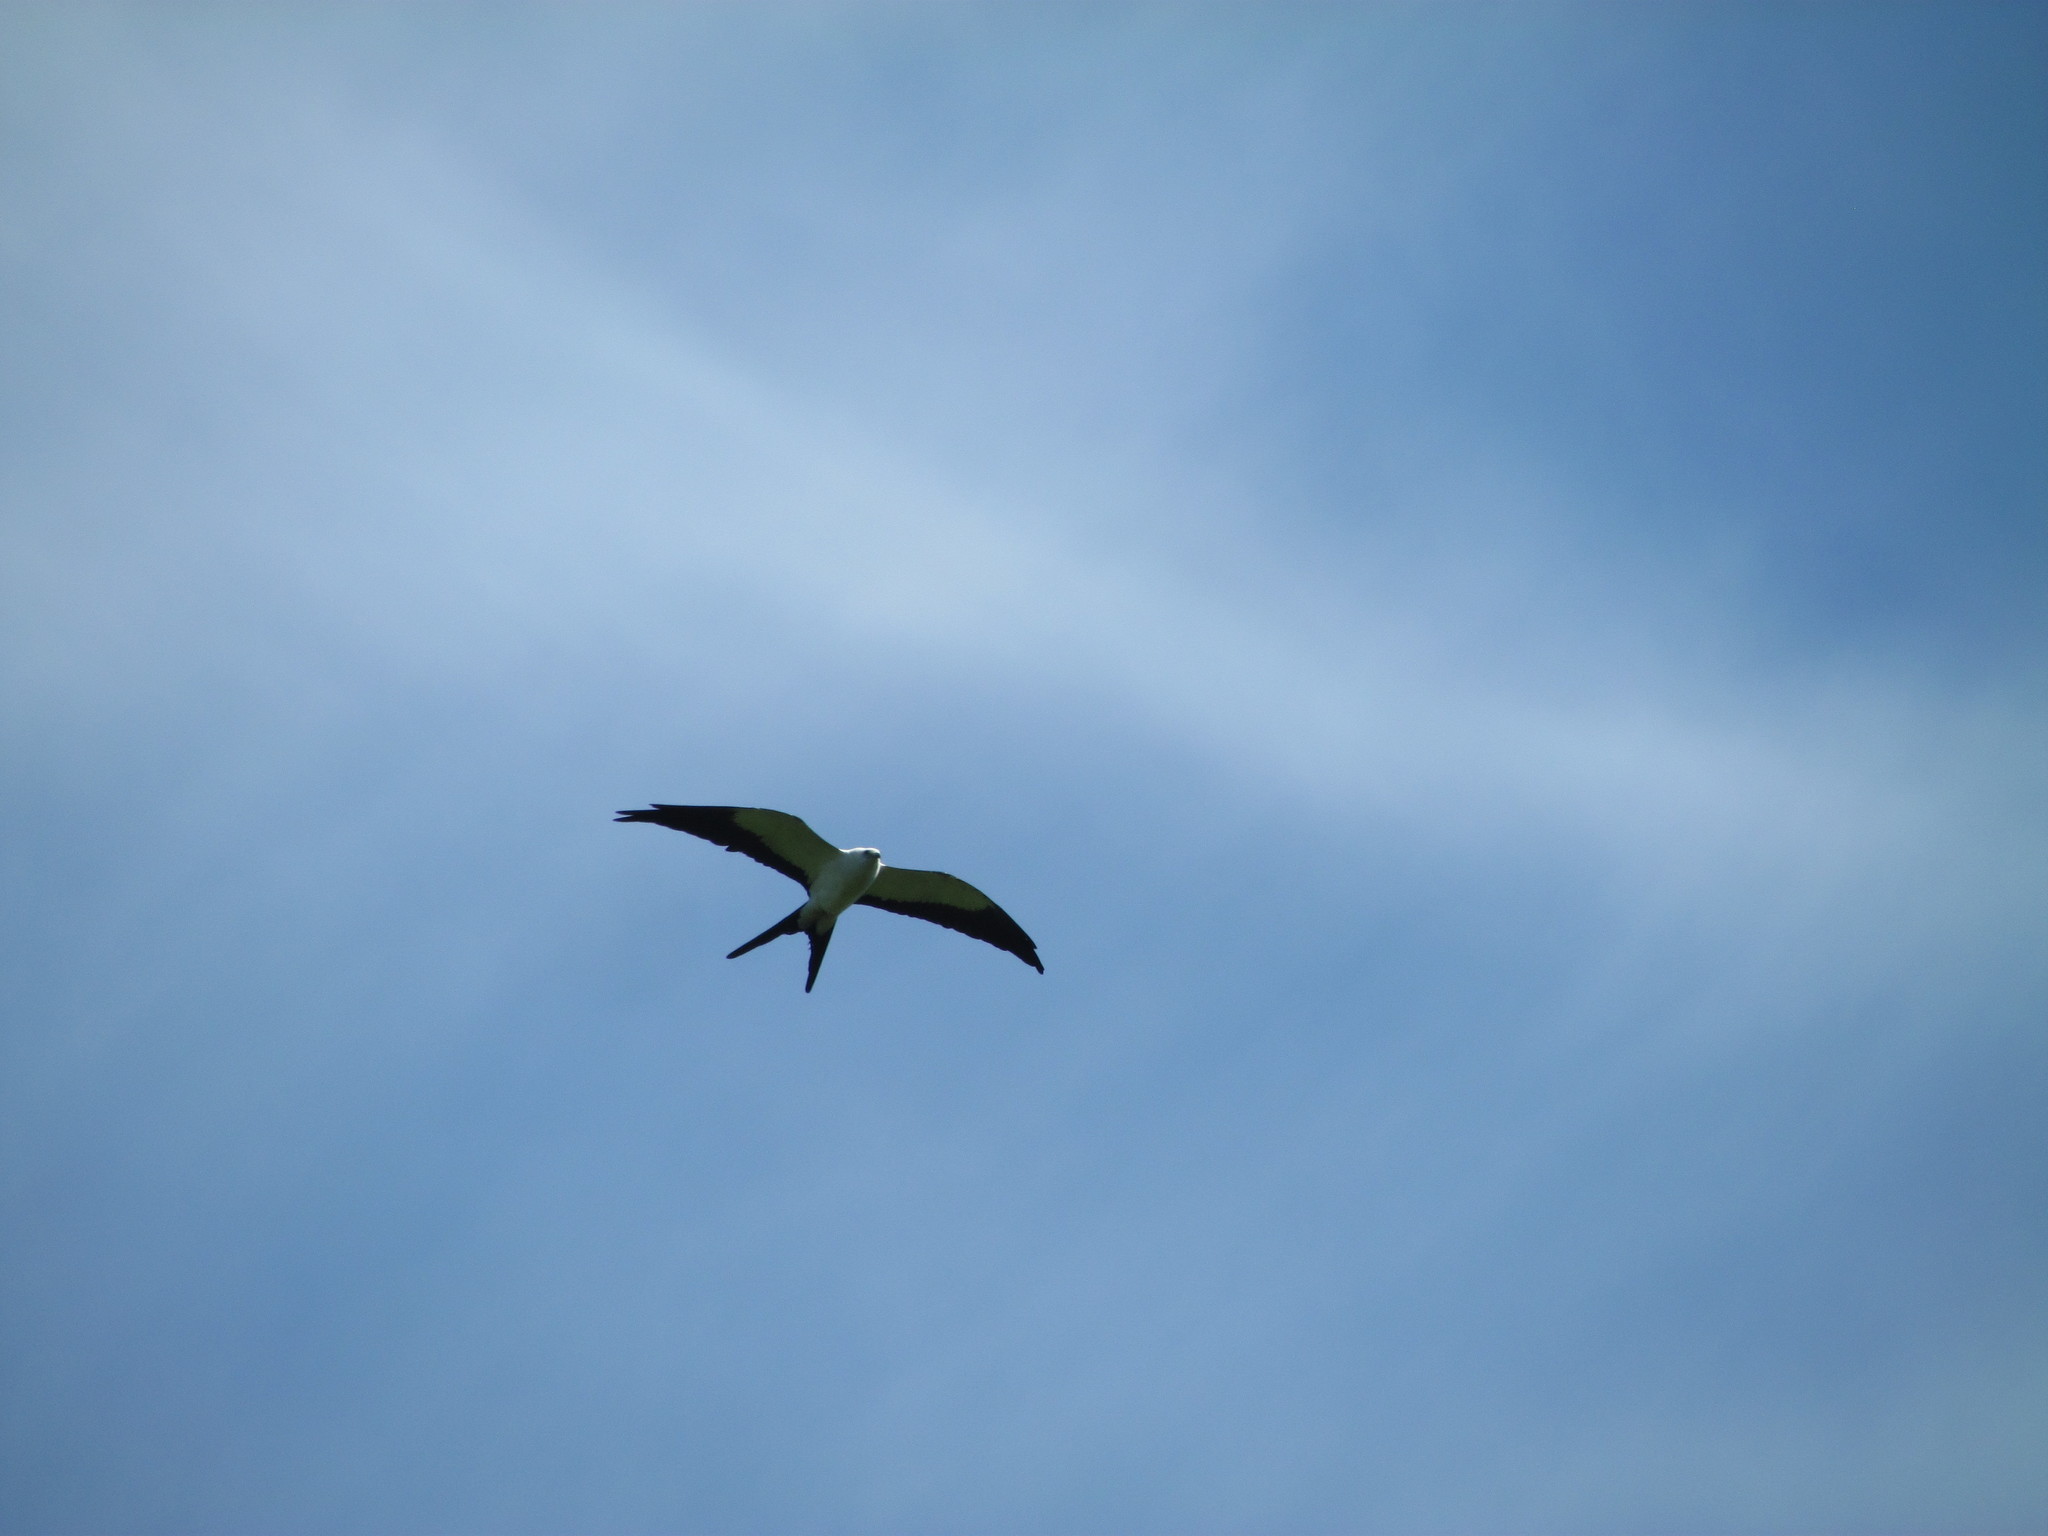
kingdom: Animalia
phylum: Chordata
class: Aves
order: Accipitriformes
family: Accipitridae
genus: Elanoides
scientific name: Elanoides forficatus
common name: Swallow-tailed kite
